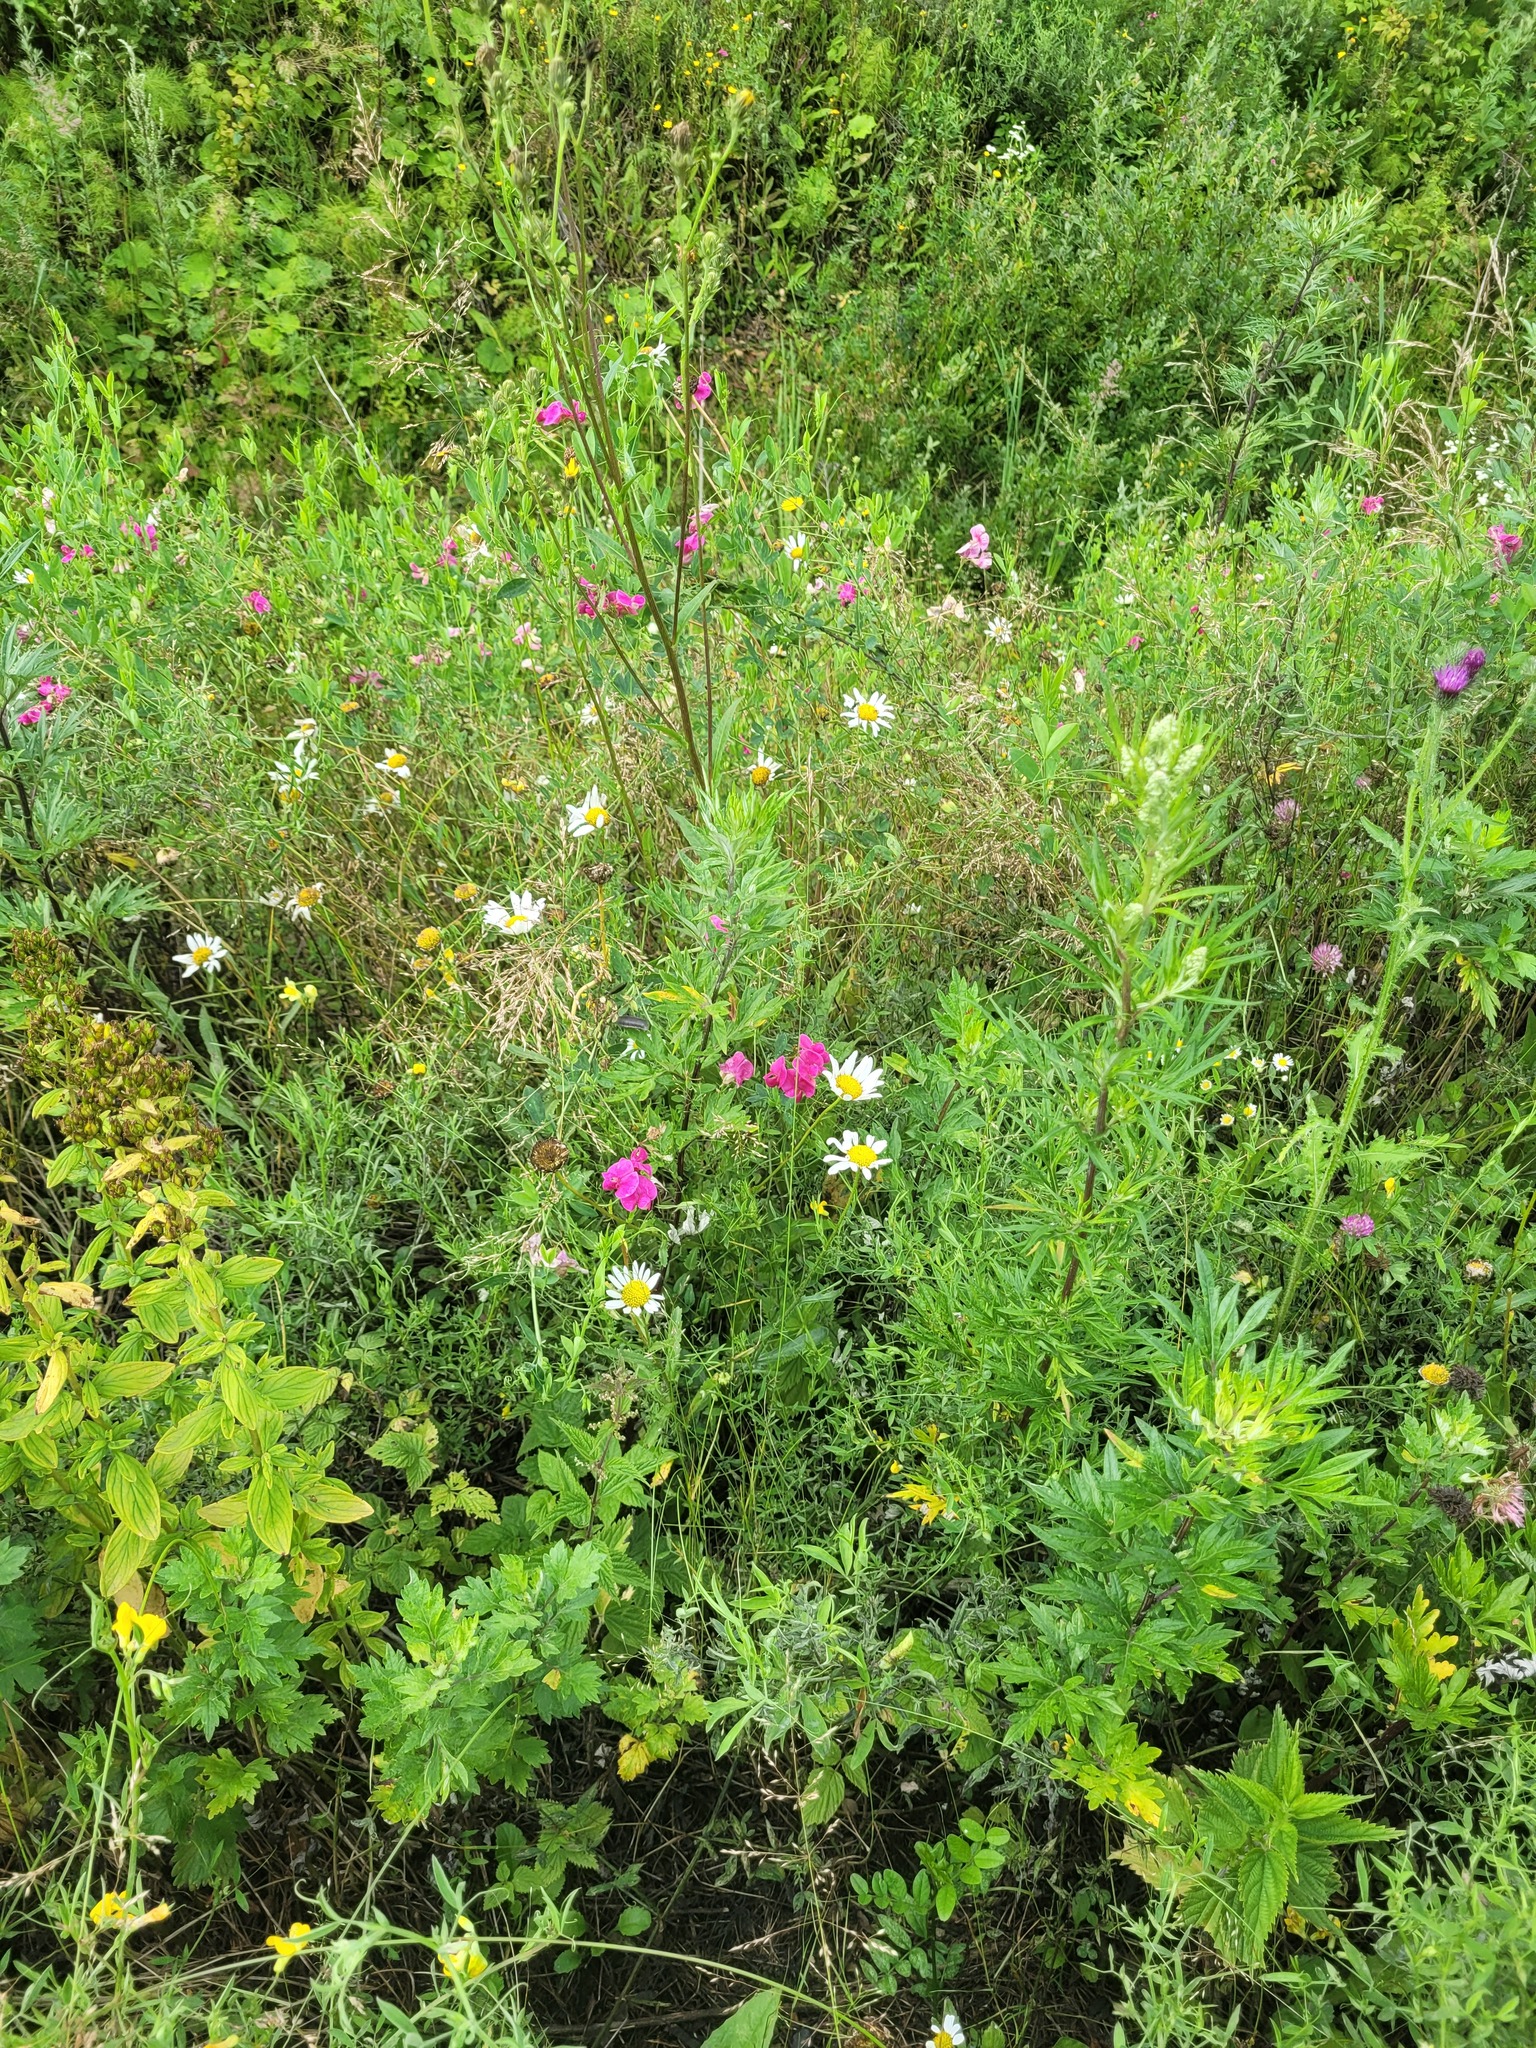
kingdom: Plantae
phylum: Tracheophyta
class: Magnoliopsida
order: Fabales
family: Fabaceae
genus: Lathyrus
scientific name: Lathyrus tuberosus
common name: Tuberous pea
